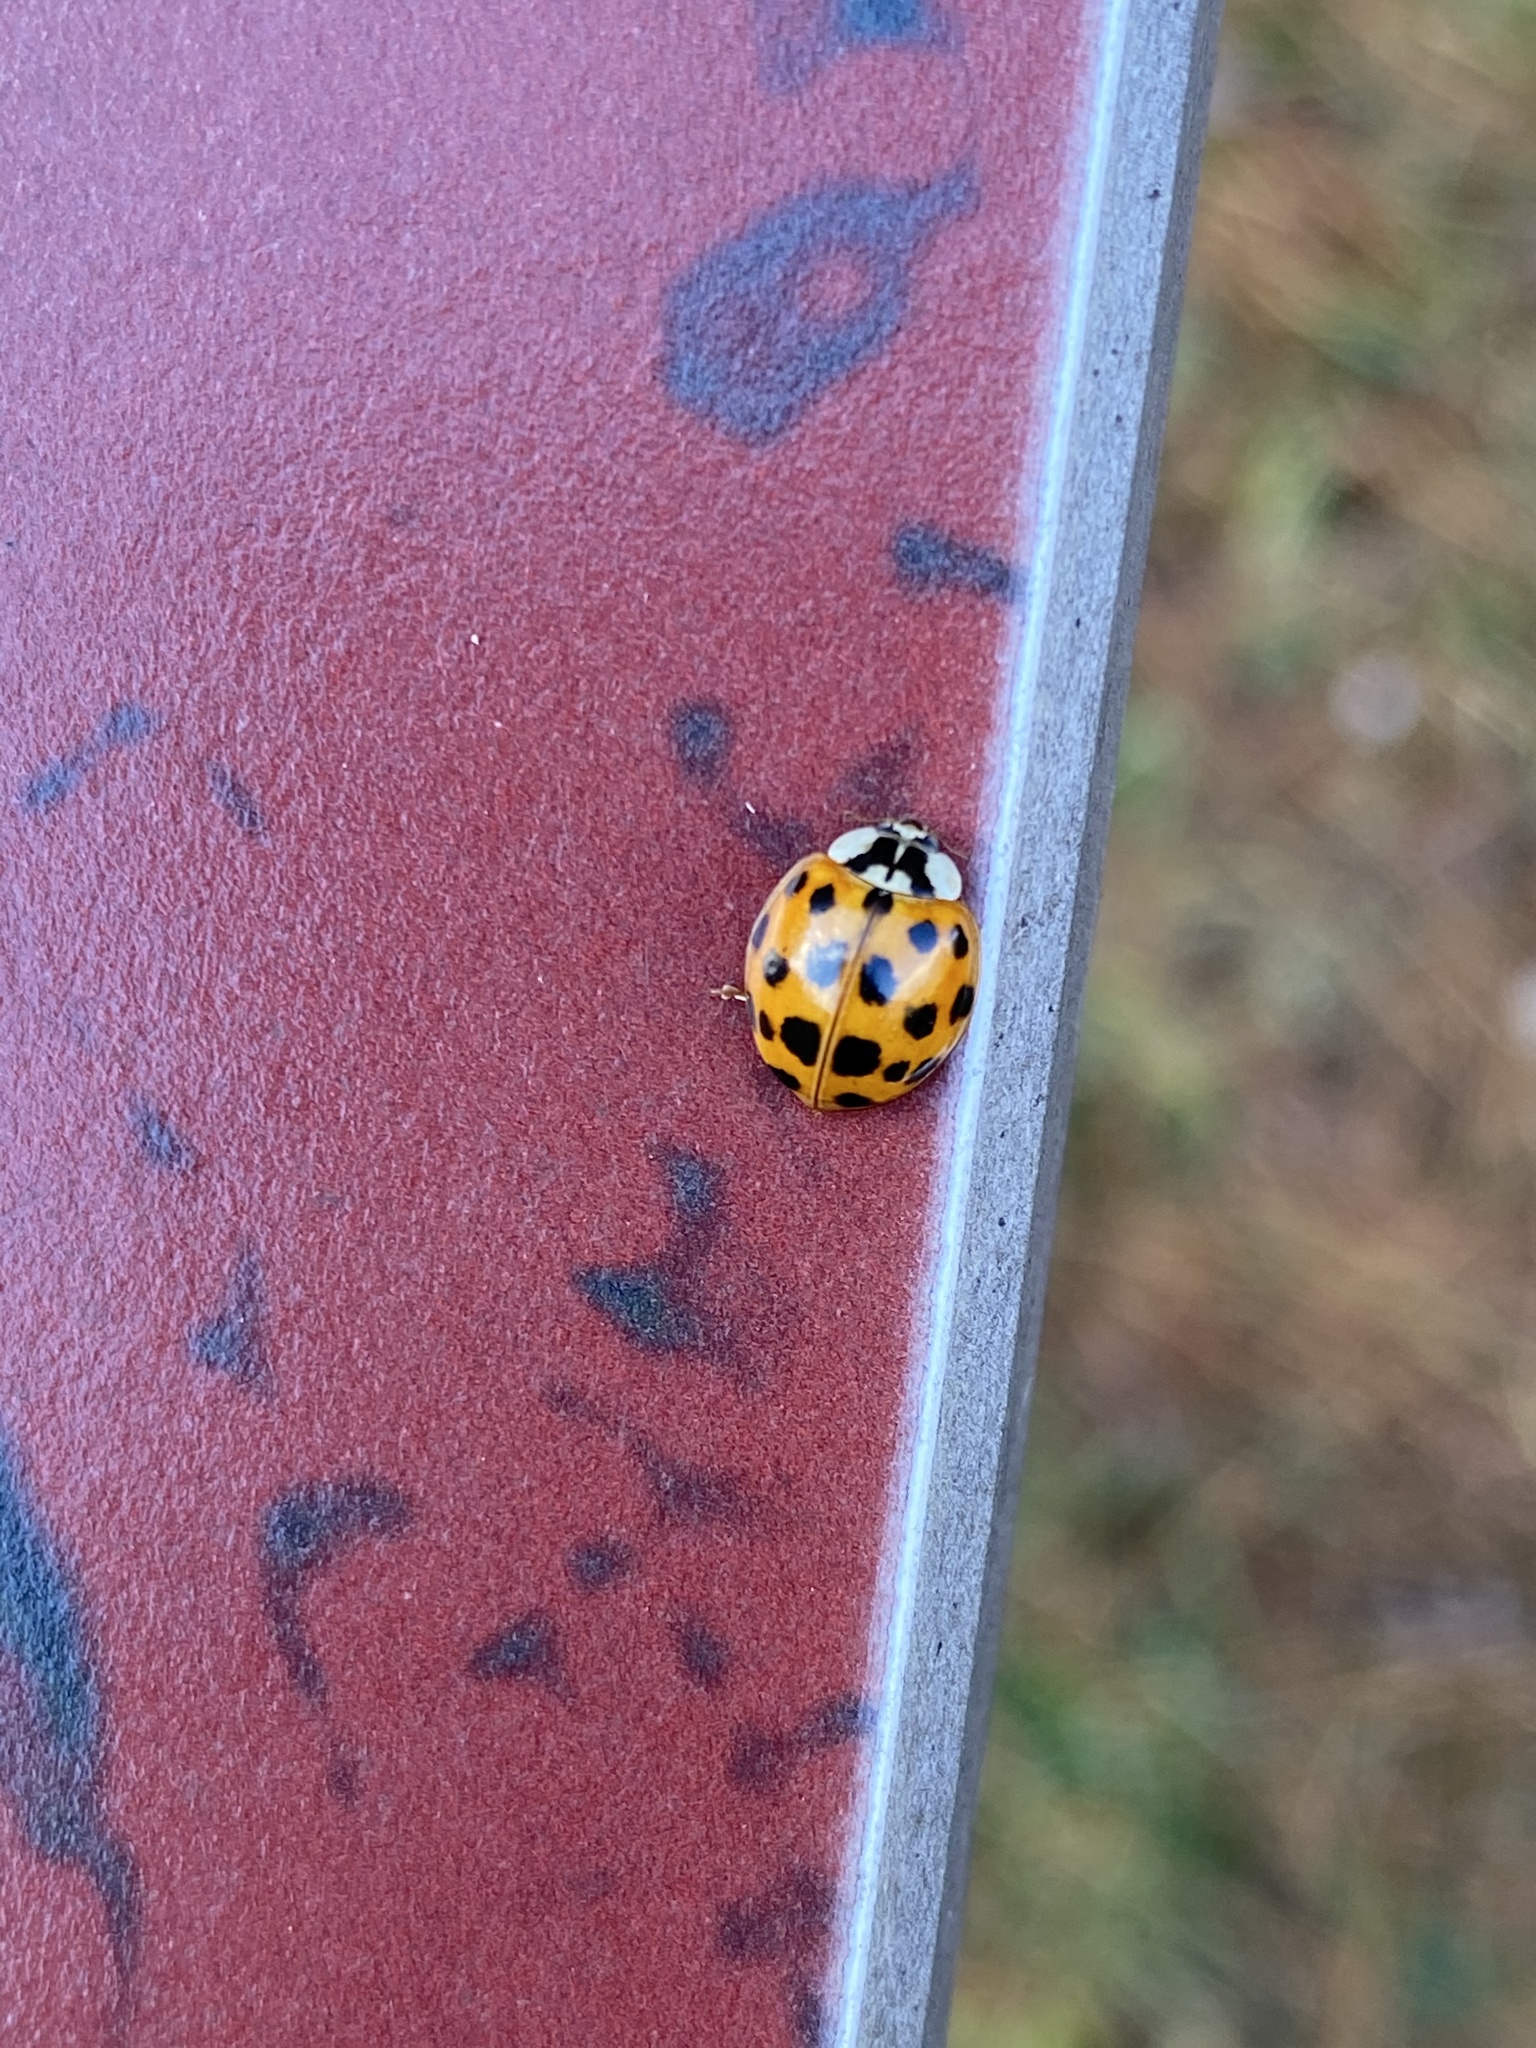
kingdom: Animalia
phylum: Arthropoda
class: Insecta
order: Coleoptera
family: Coccinellidae
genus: Harmonia
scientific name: Harmonia axyridis
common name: Harlequin ladybird
